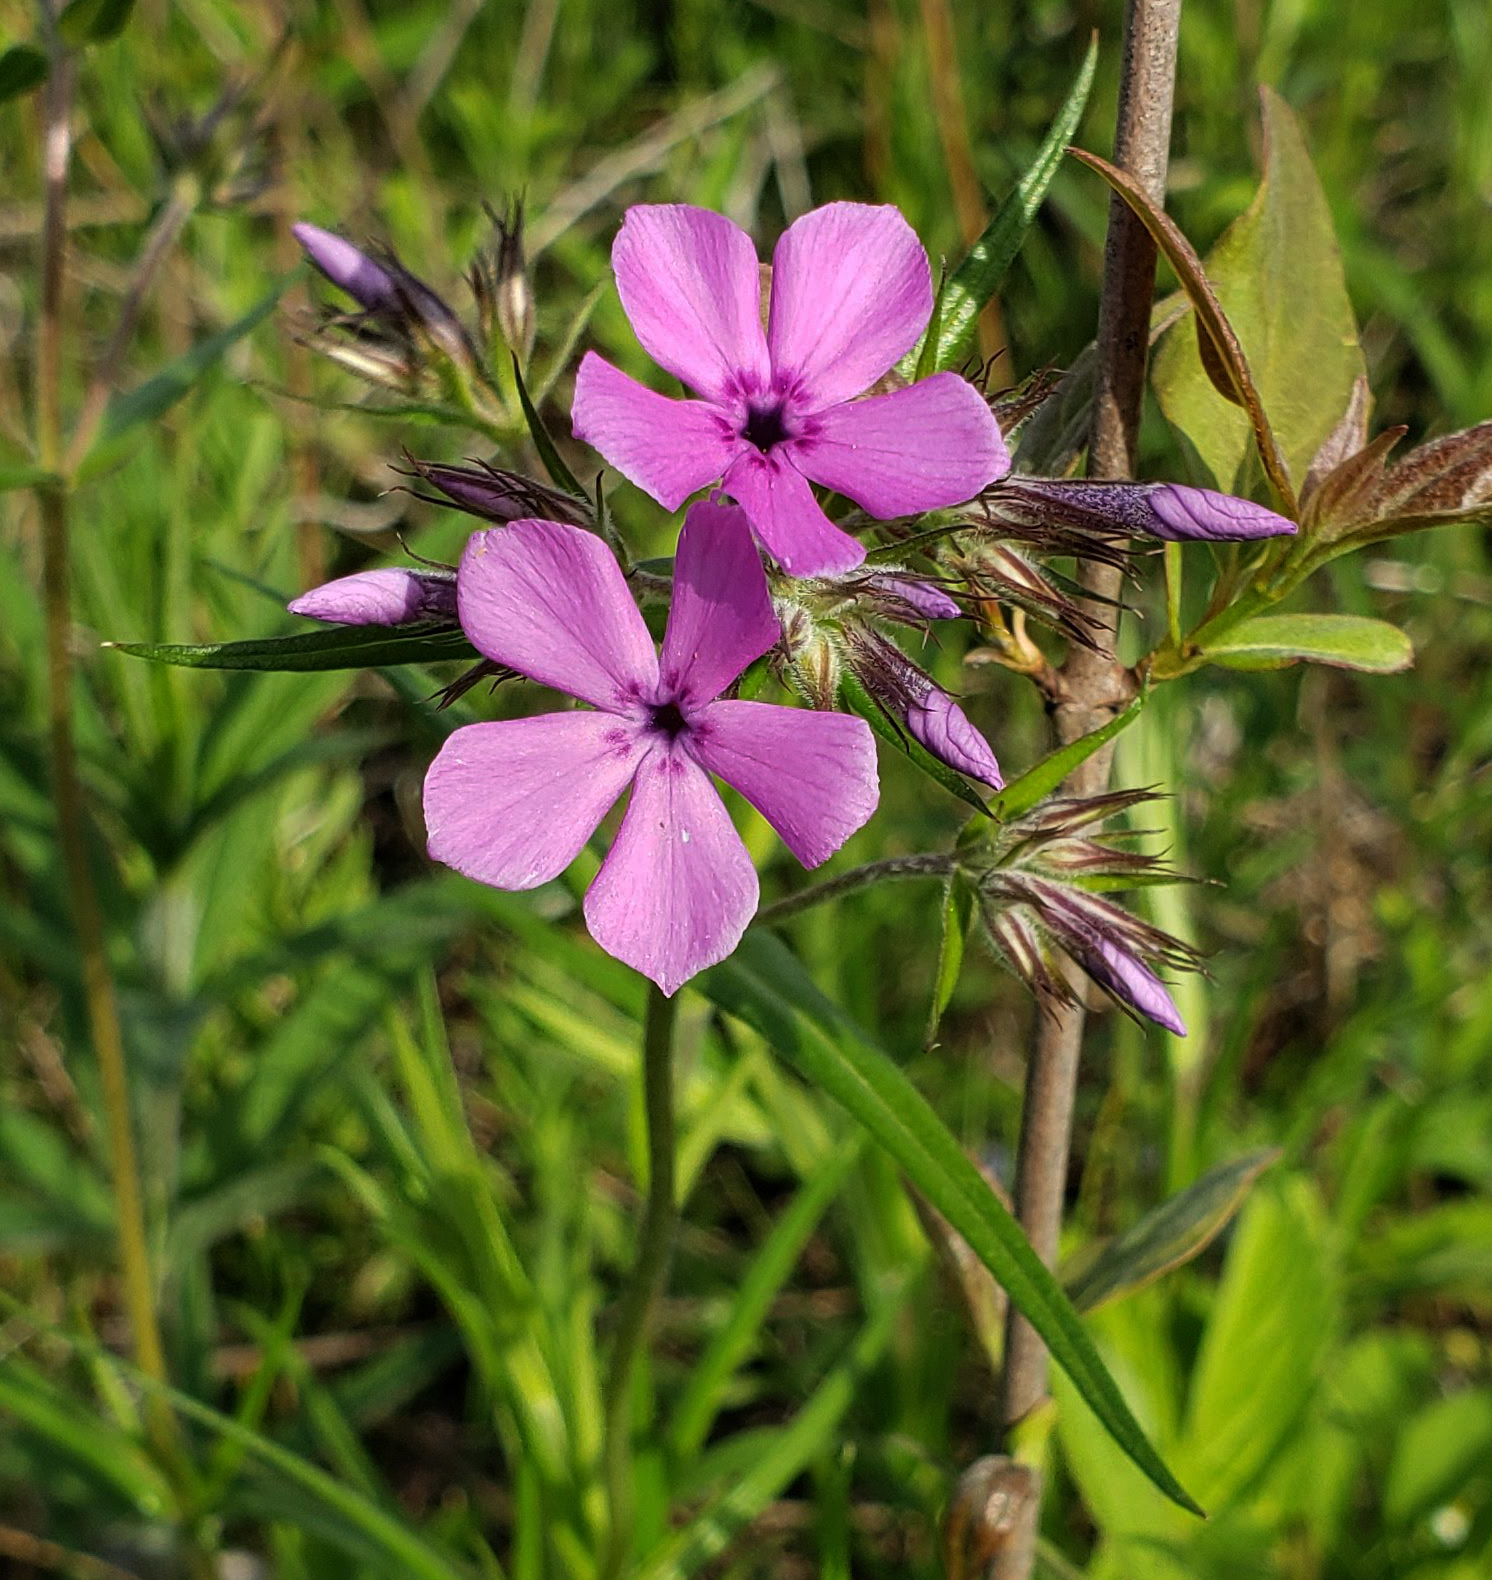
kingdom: Plantae
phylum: Tracheophyta
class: Magnoliopsida
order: Ericales
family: Polemoniaceae
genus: Phlox
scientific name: Phlox pilosa
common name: Prairie phlox
